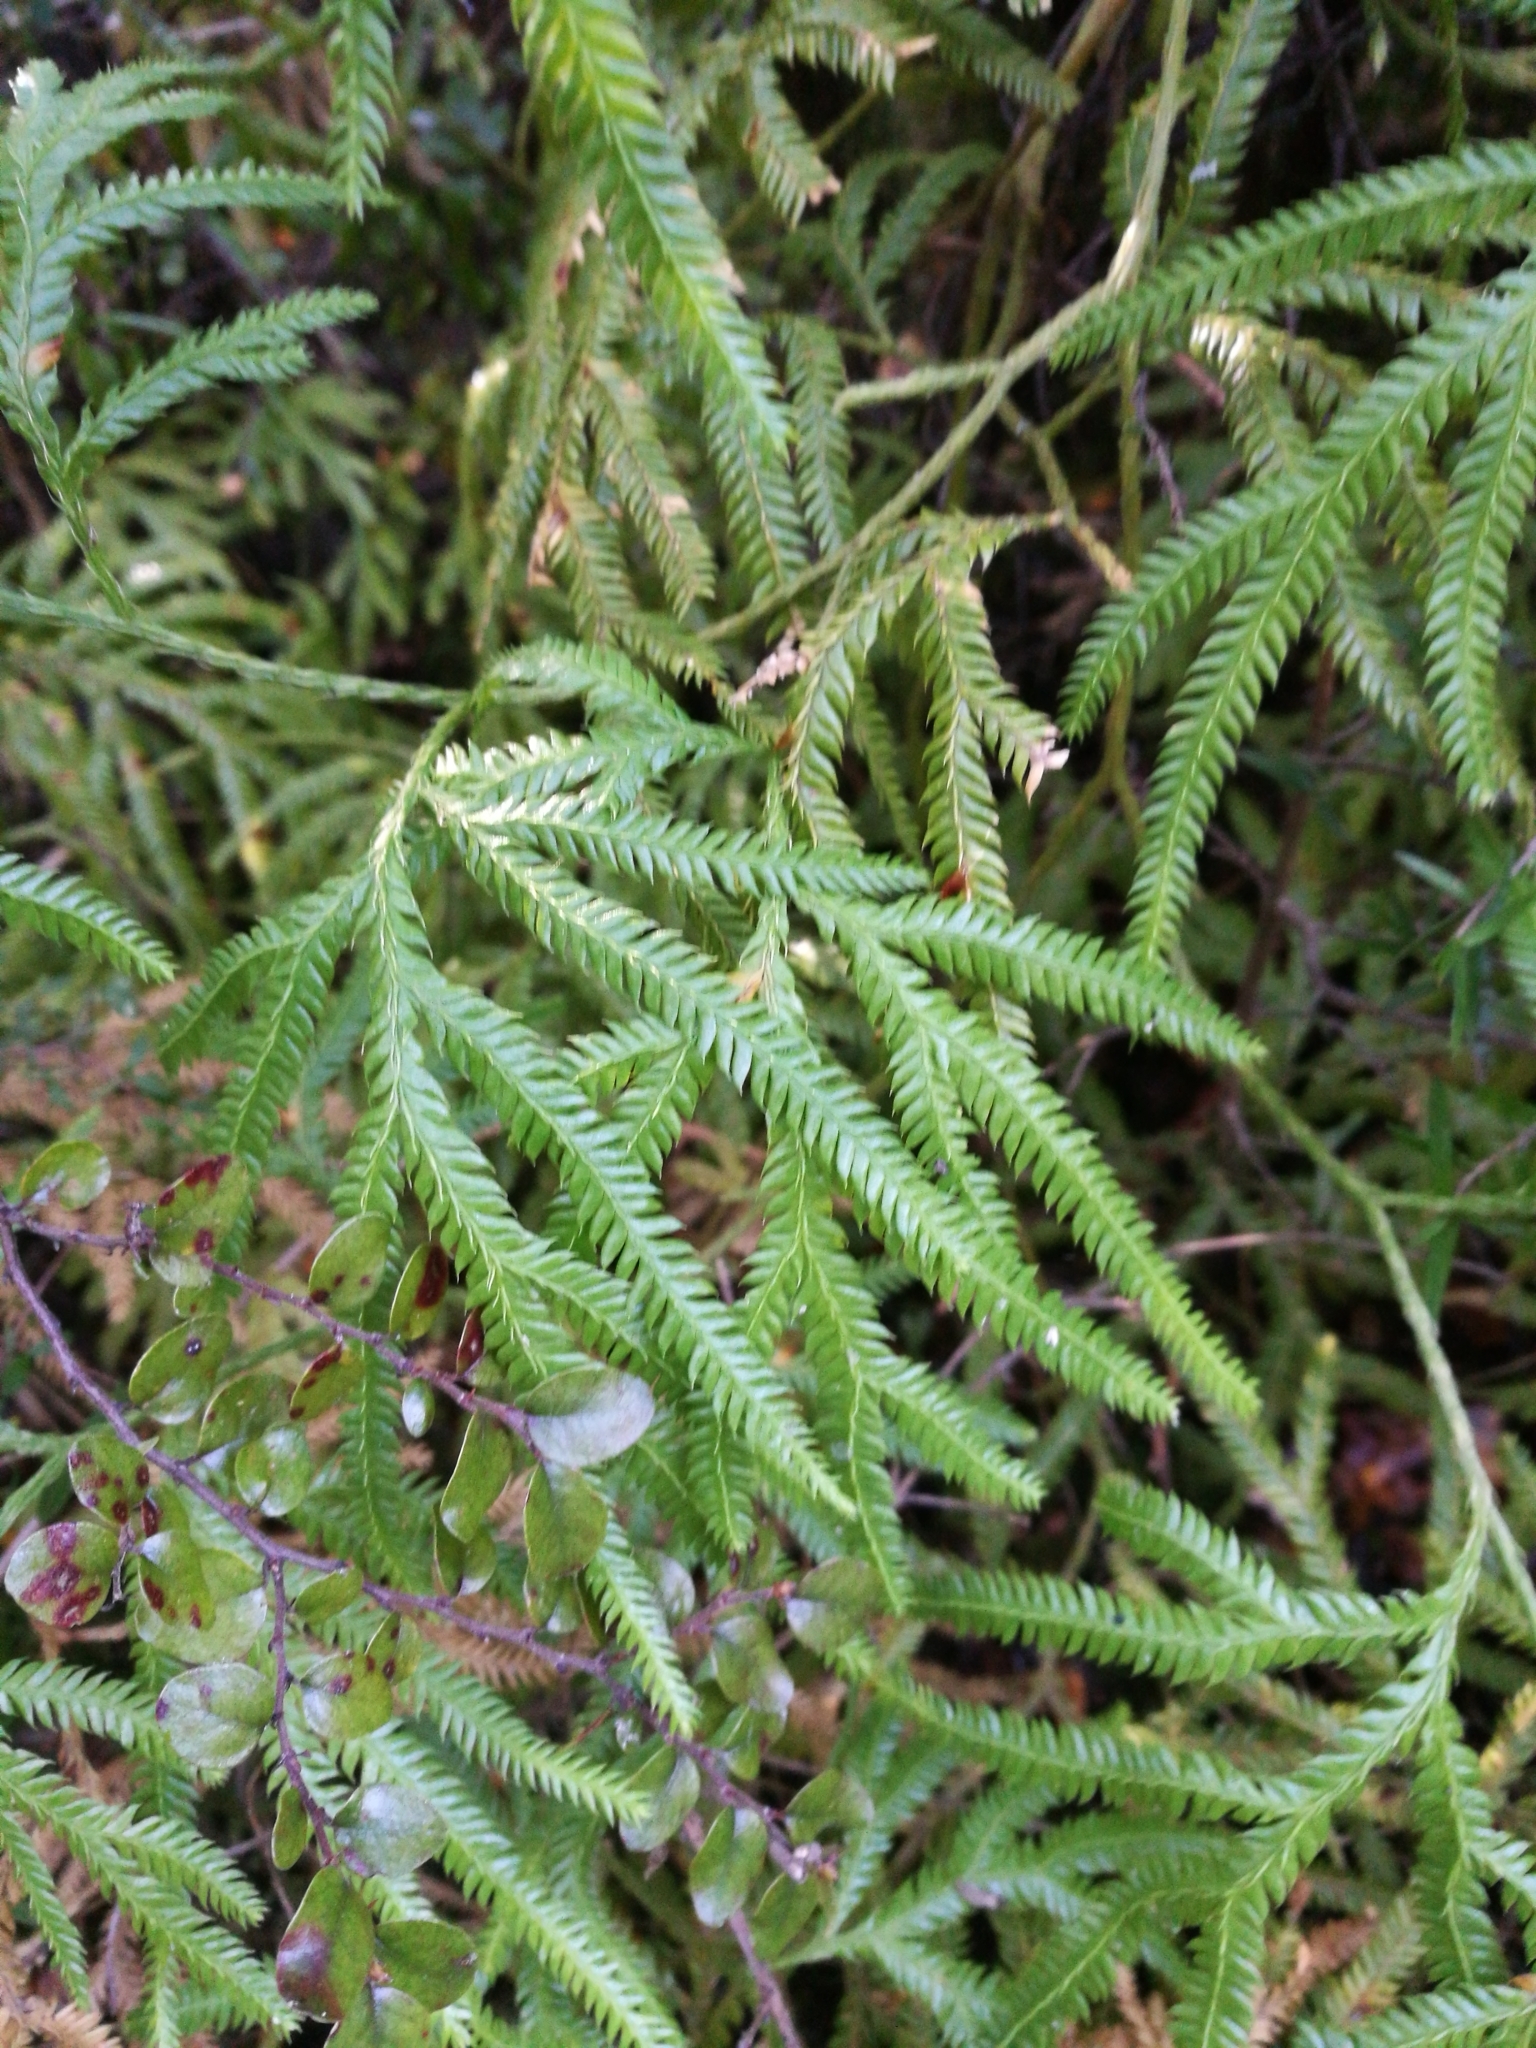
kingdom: Plantae
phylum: Tracheophyta
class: Lycopodiopsida
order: Lycopodiales
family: Lycopodiaceae
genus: Lycopodium
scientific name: Lycopodium volubile
